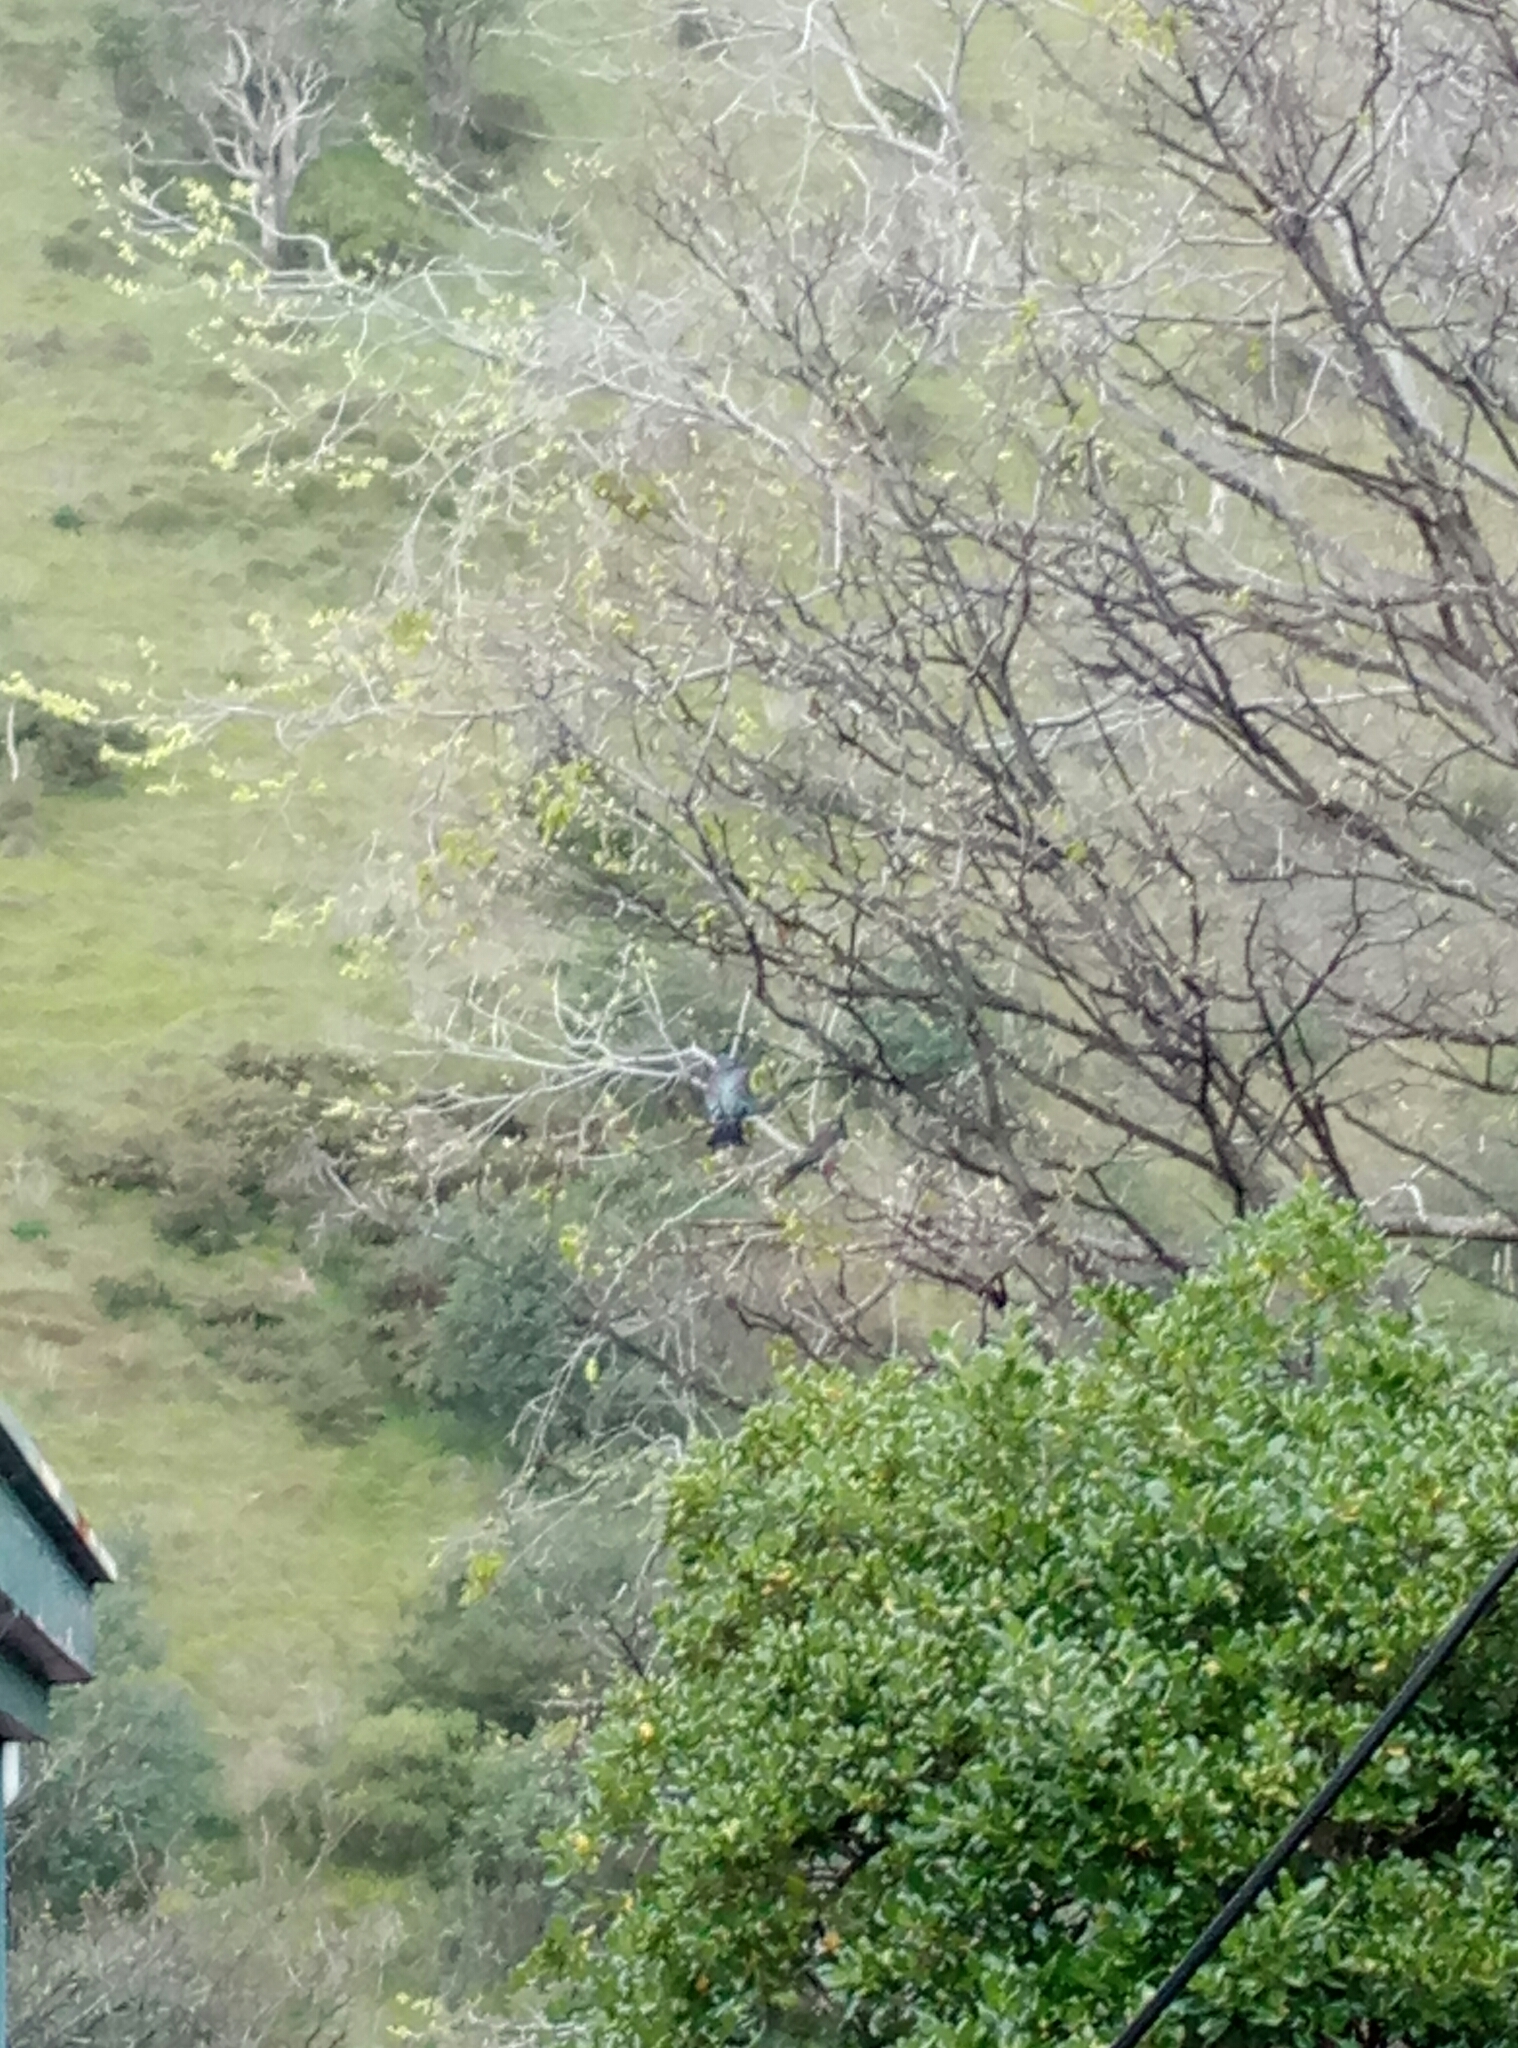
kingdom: Animalia
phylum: Chordata
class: Aves
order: Columbiformes
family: Columbidae
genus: Hemiphaga
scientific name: Hemiphaga novaeseelandiae
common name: New zealand pigeon
